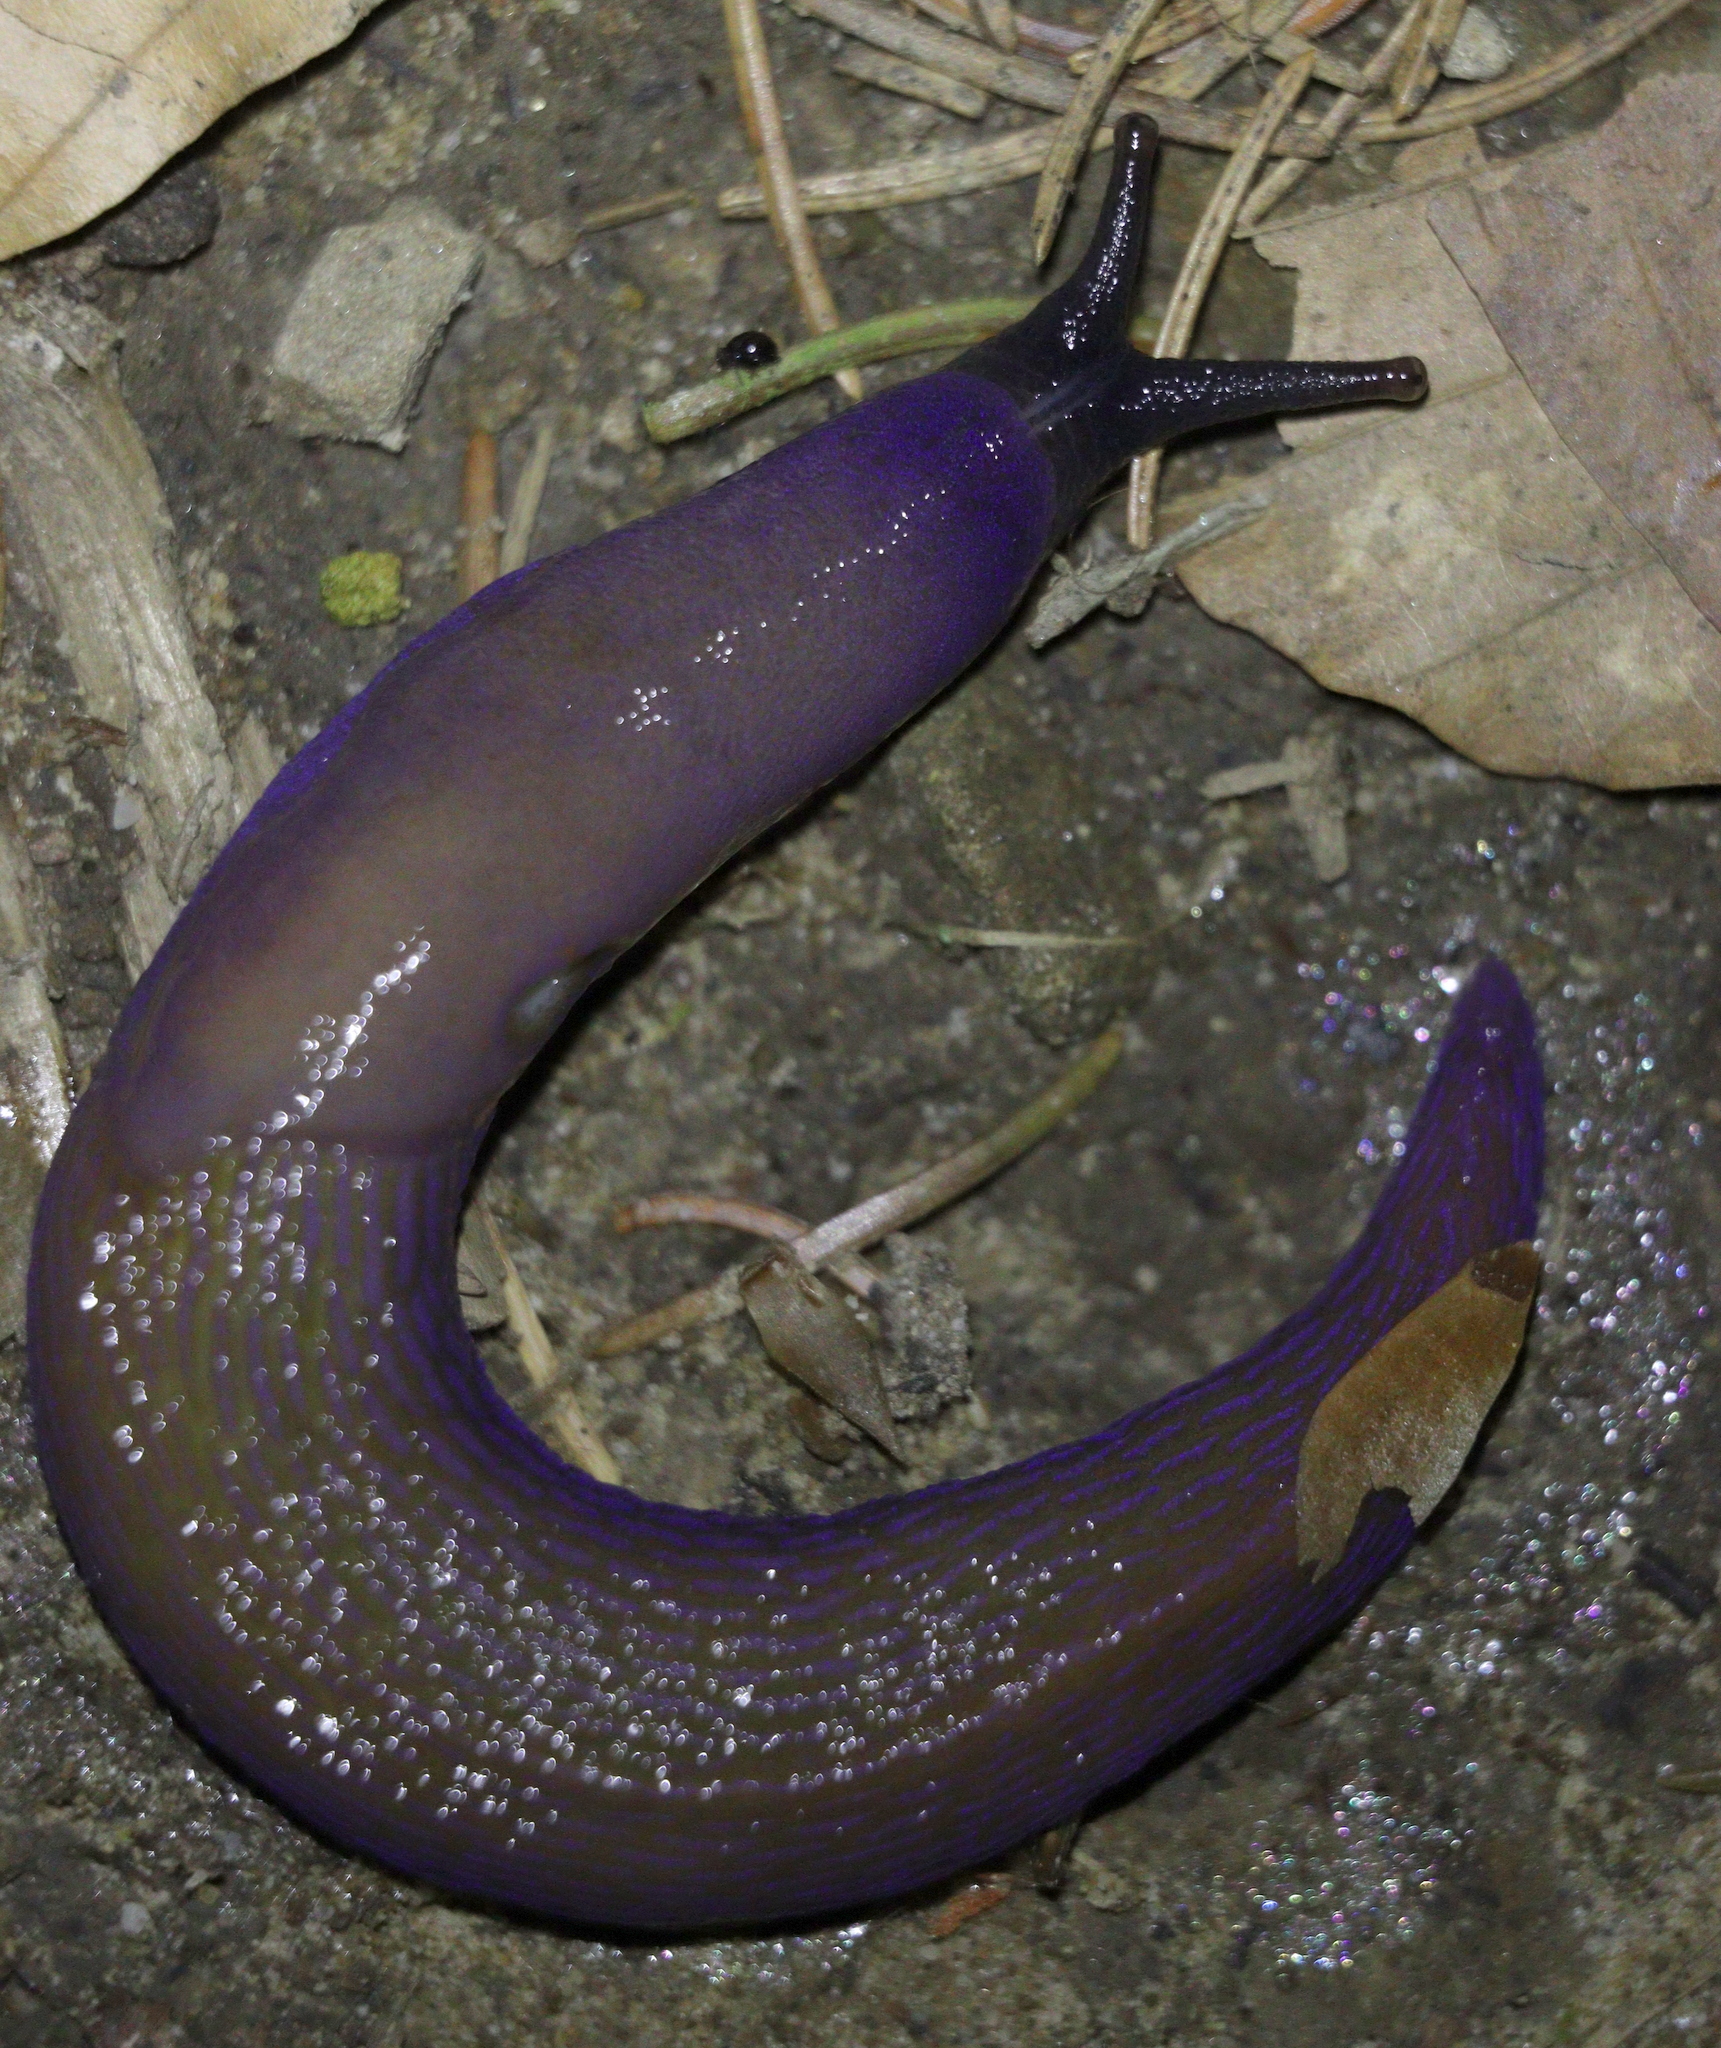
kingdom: Animalia
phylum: Mollusca
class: Gastropoda
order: Stylommatophora
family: Limacidae
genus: Bielzia
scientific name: Bielzia coerulans
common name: Carpathian blue slug
